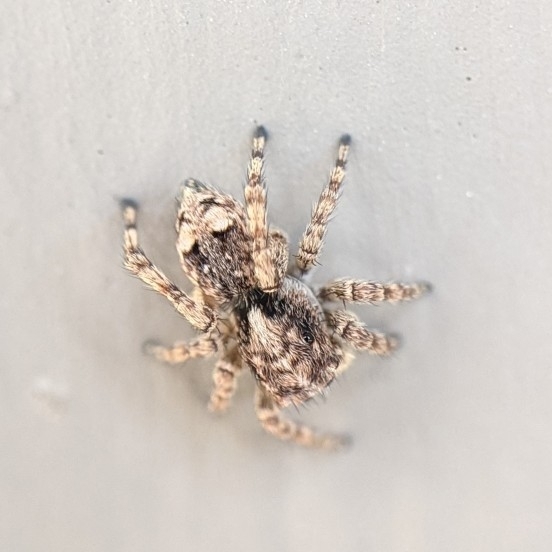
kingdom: Animalia
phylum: Arthropoda
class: Arachnida
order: Araneae
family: Salticidae
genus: Attulus
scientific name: Attulus fasciger
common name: Asiatic wall jumping spider
